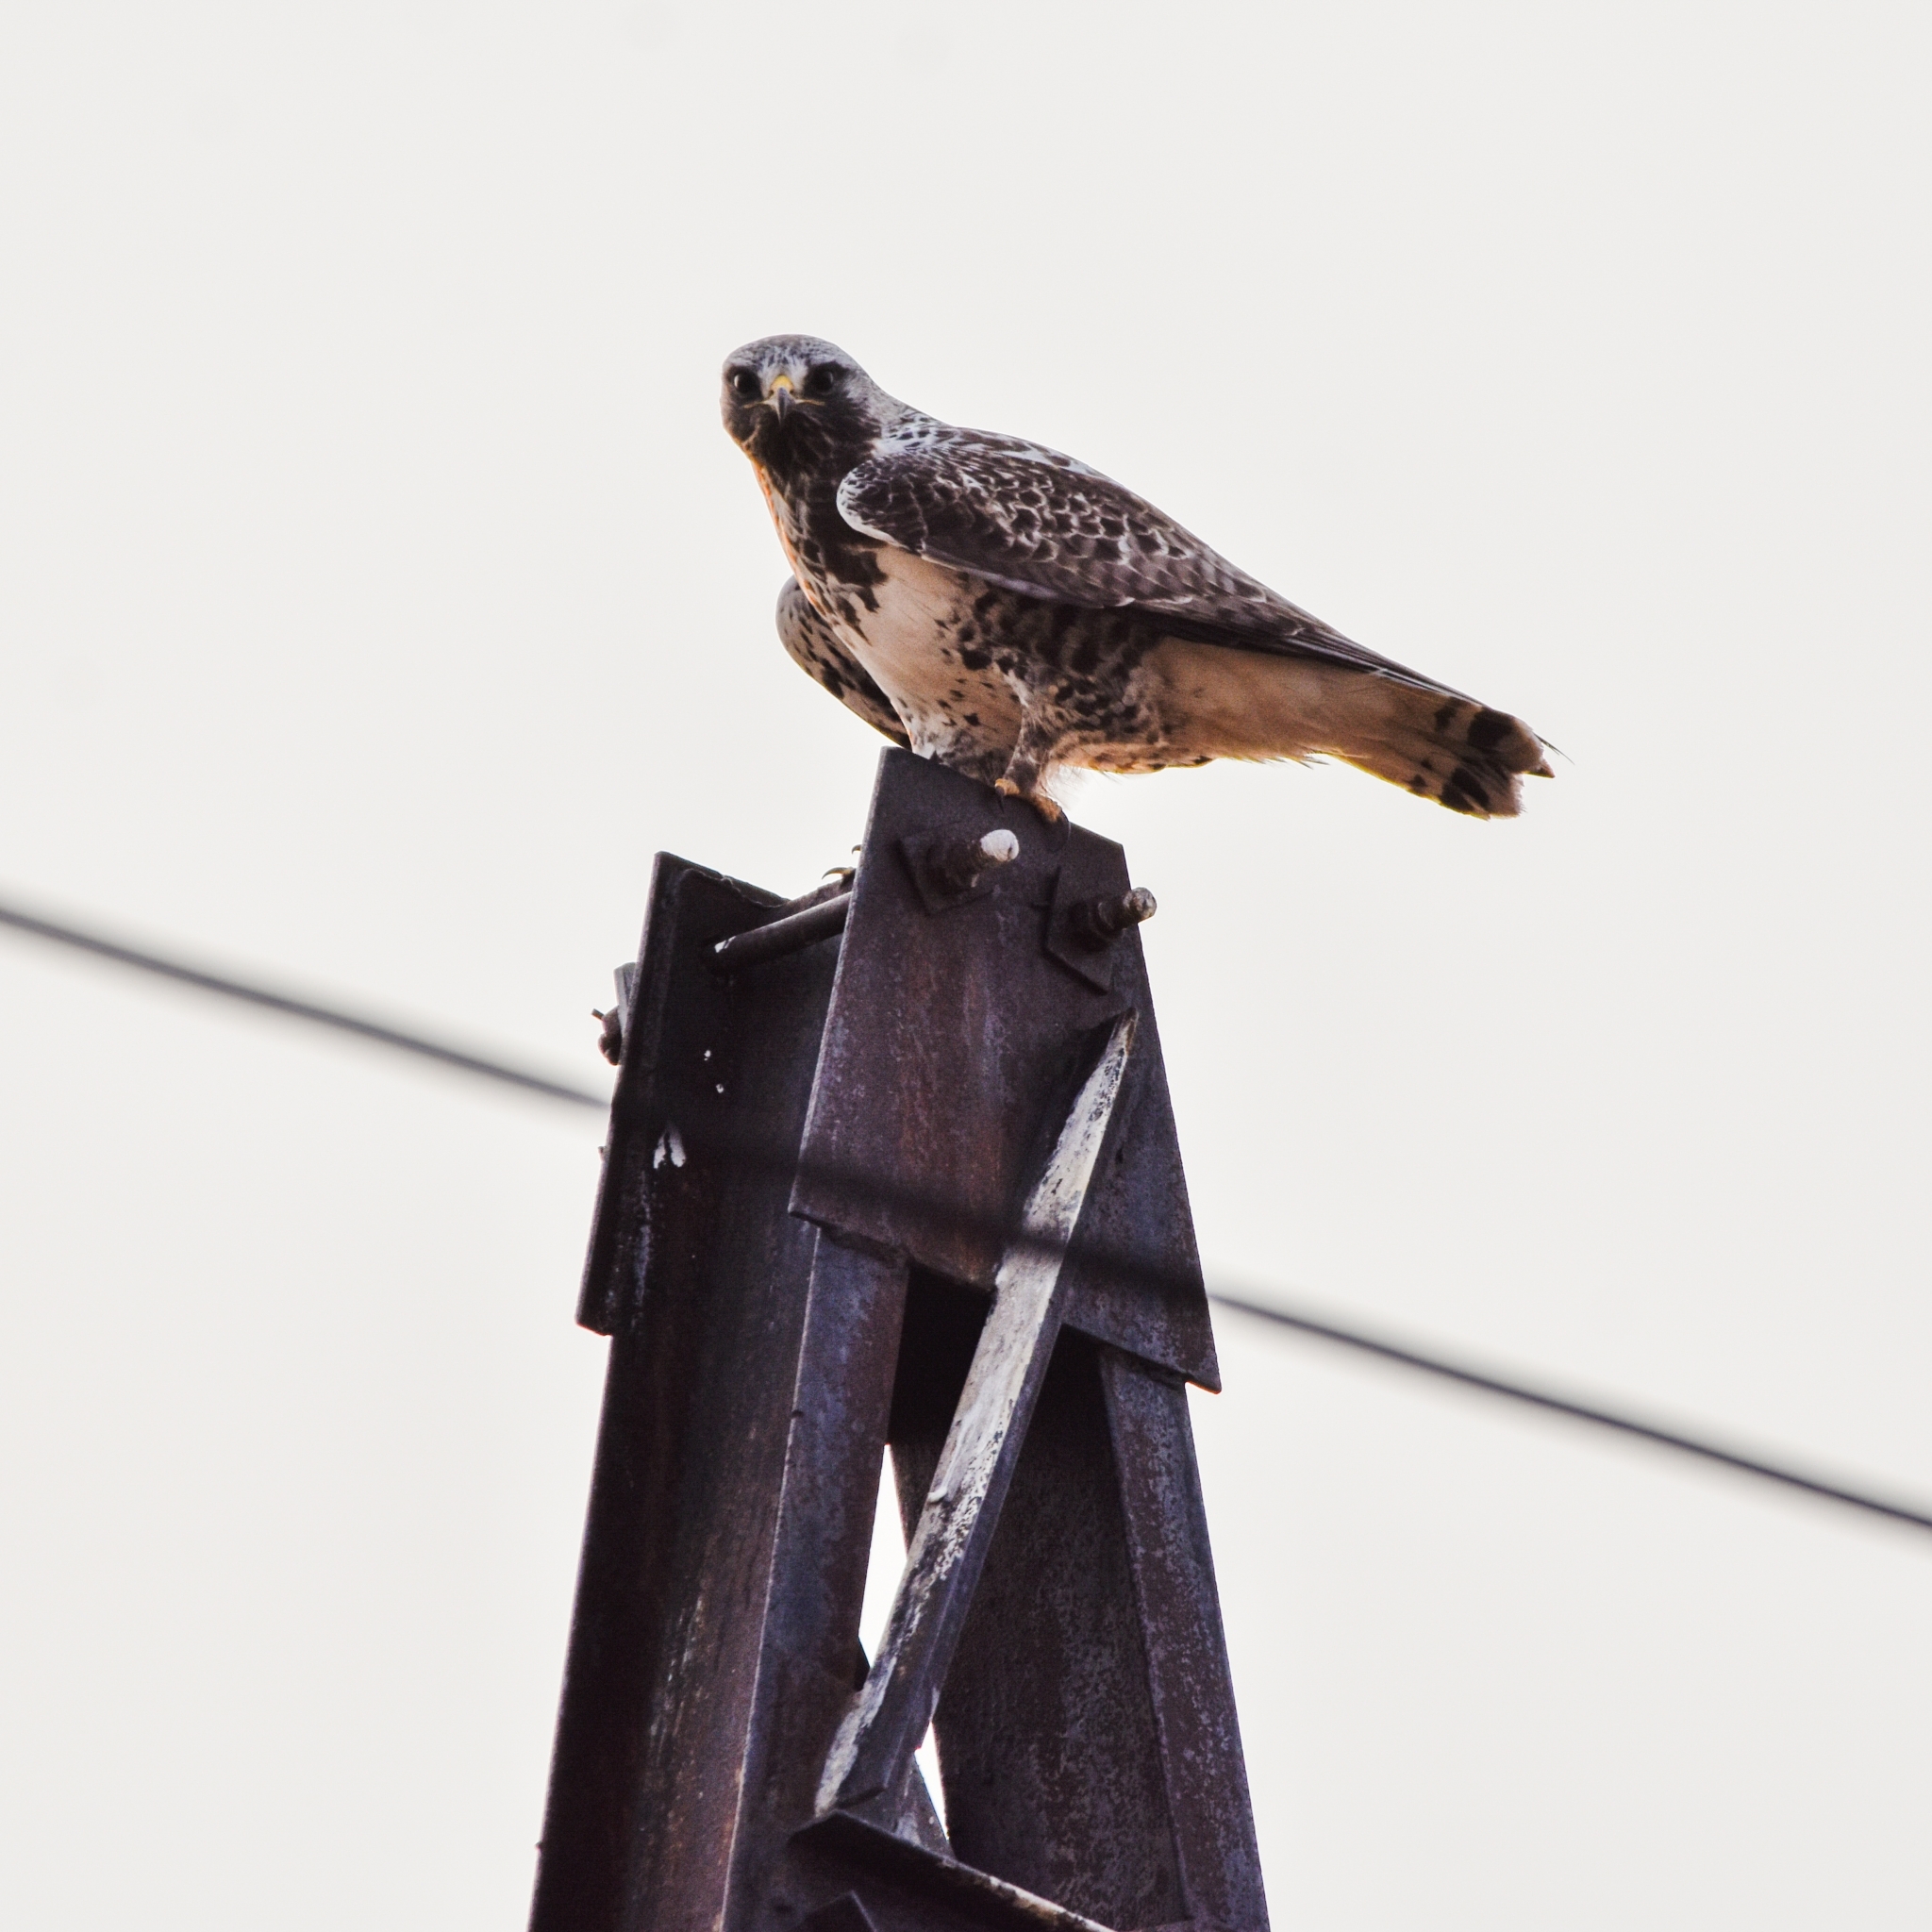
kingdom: Animalia
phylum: Chordata
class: Aves
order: Accipitriformes
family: Accipitridae
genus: Buteo
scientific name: Buteo lagopus
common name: Rough-legged buzzard
